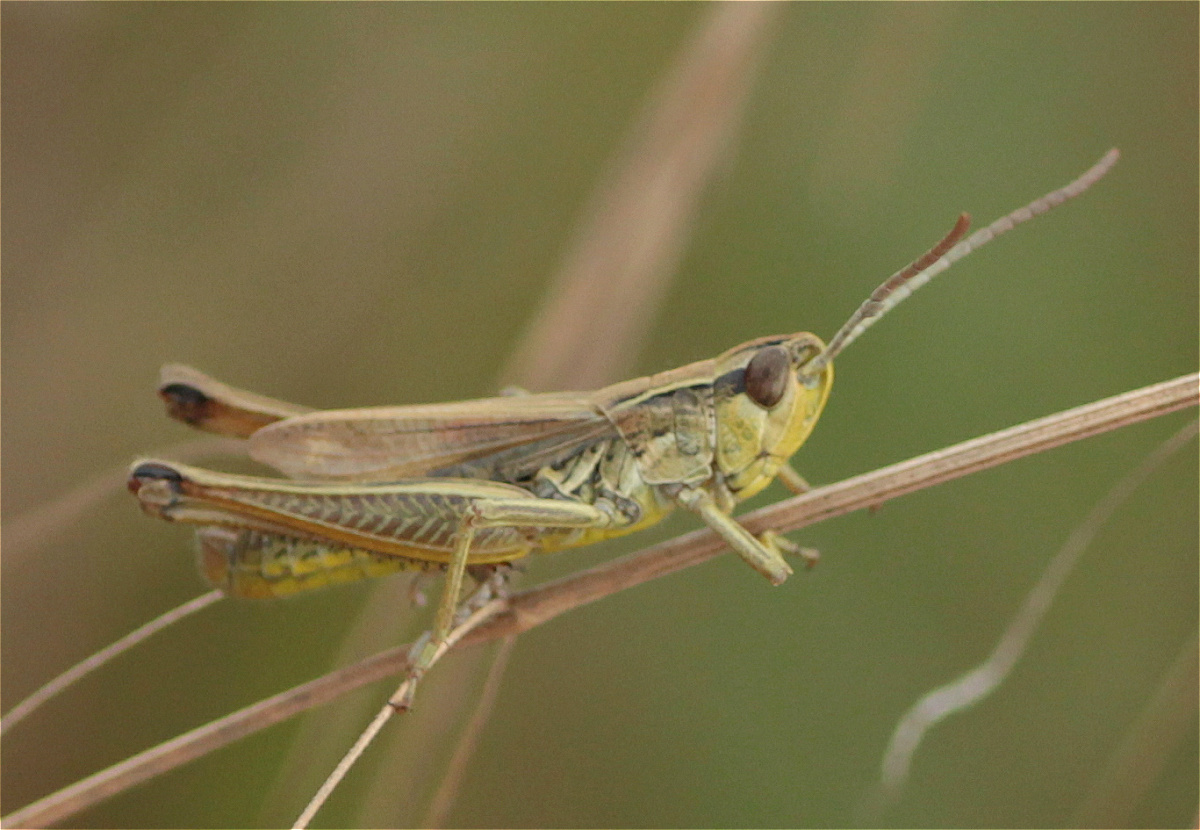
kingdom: Animalia
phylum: Arthropoda
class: Insecta
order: Orthoptera
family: Acrididae
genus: Pseudochorthippus
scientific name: Pseudochorthippus parallelus
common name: Meadow grasshopper
